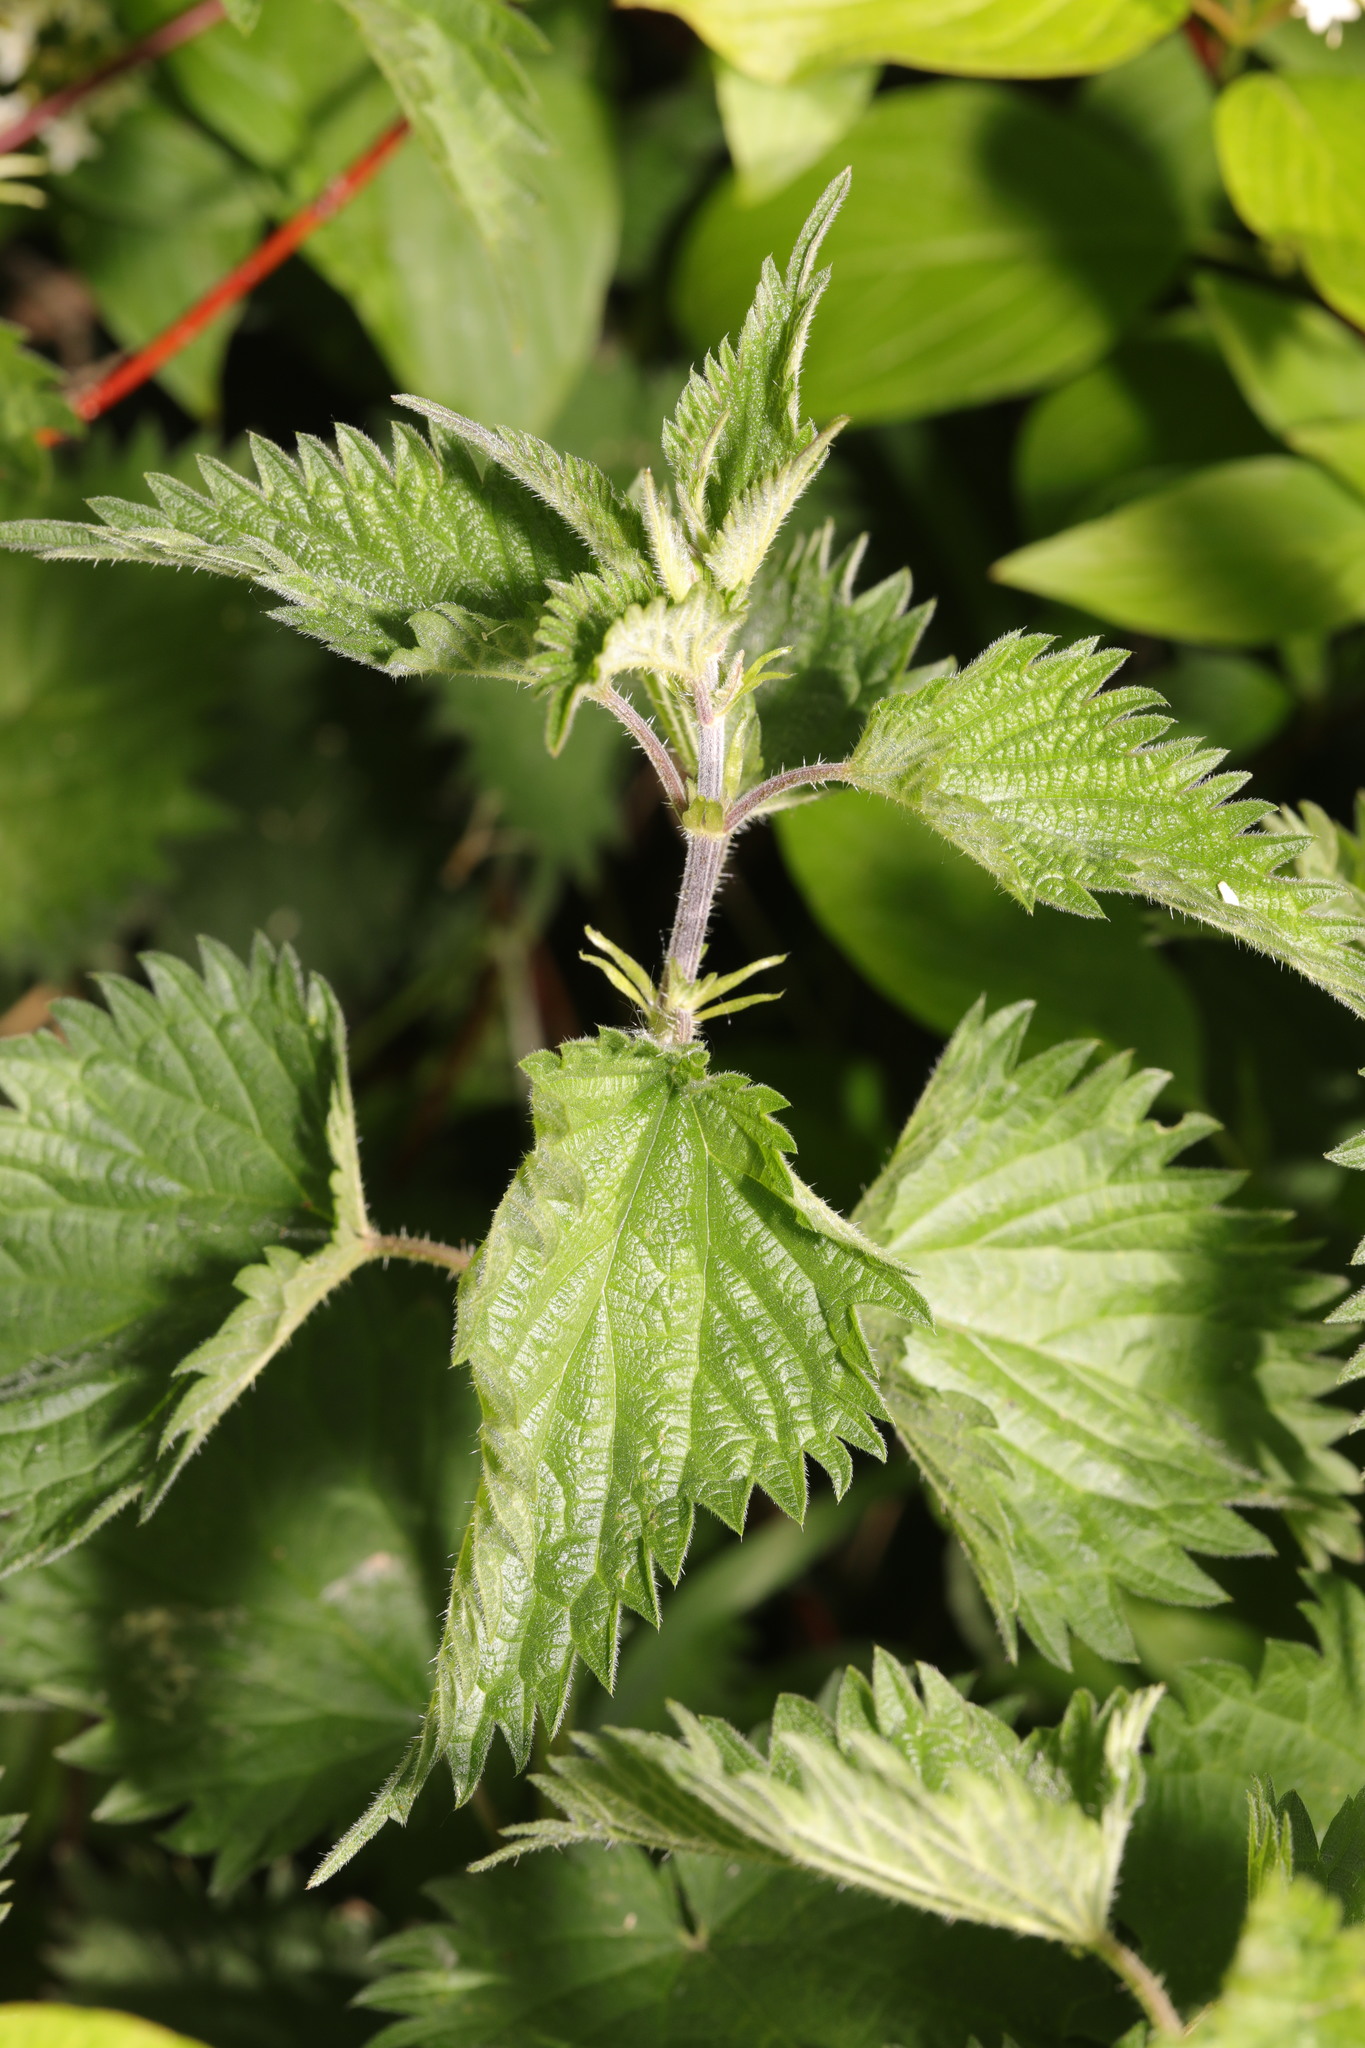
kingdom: Plantae
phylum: Tracheophyta
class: Magnoliopsida
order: Rosales
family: Urticaceae
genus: Urtica
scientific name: Urtica dioica
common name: Common nettle
